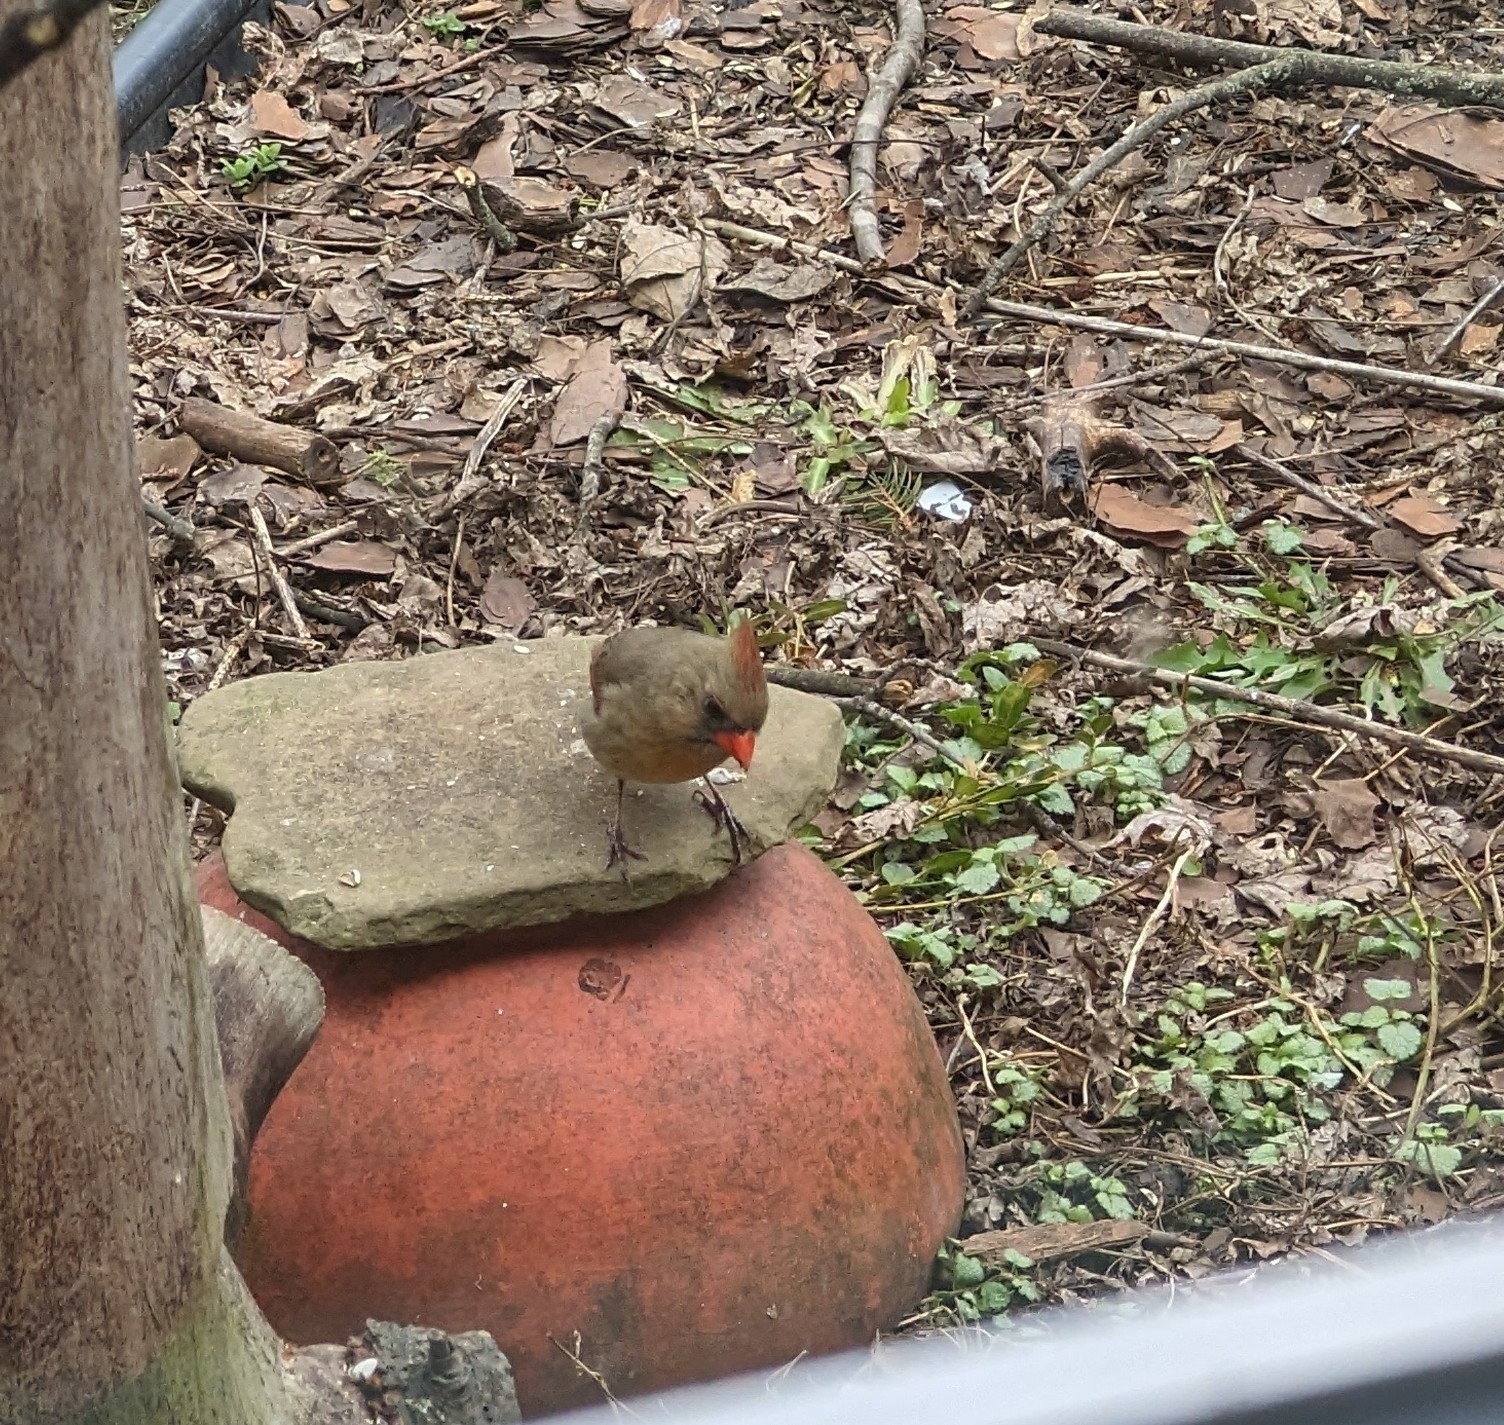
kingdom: Animalia
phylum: Chordata
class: Aves
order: Passeriformes
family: Cardinalidae
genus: Cardinalis
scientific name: Cardinalis cardinalis
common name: Northern cardinal
